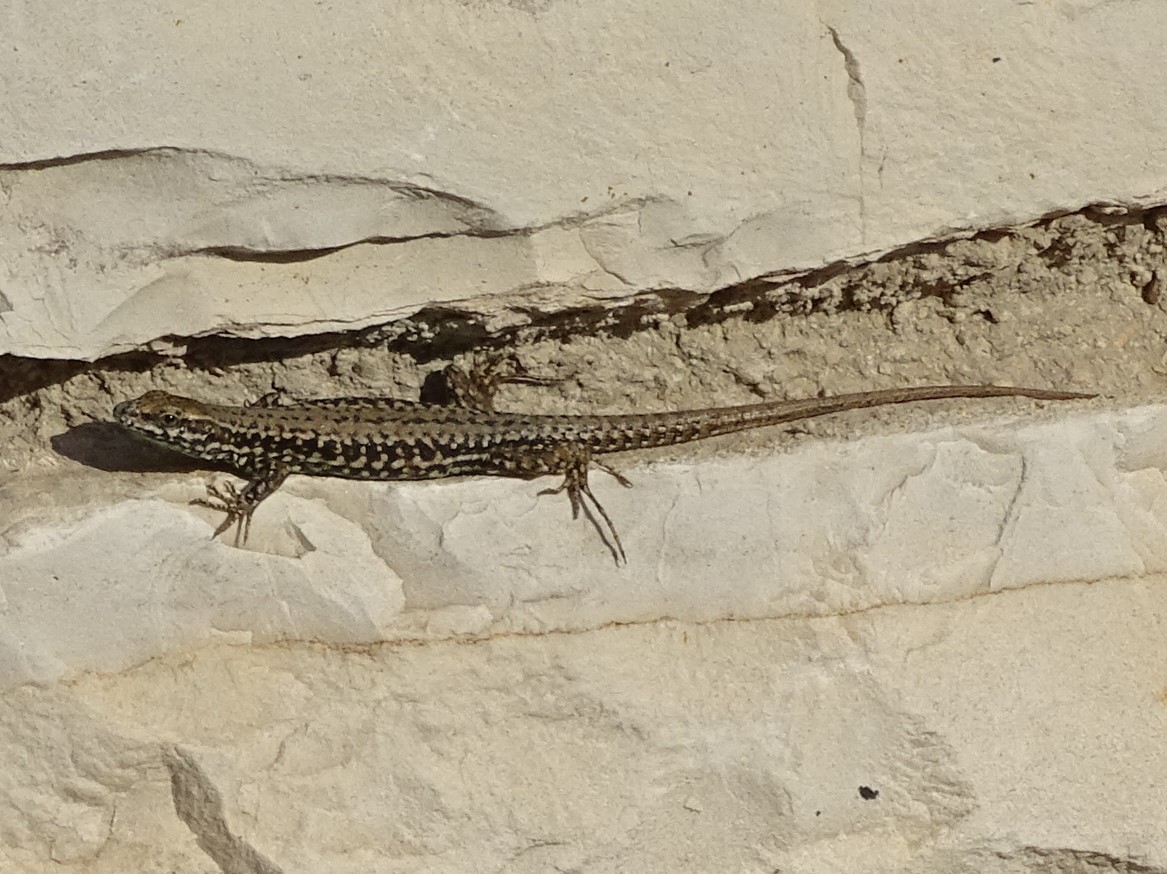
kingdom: Animalia
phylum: Chordata
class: Squamata
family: Lacertidae
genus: Podarcis
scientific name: Podarcis muralis
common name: Common wall lizard
